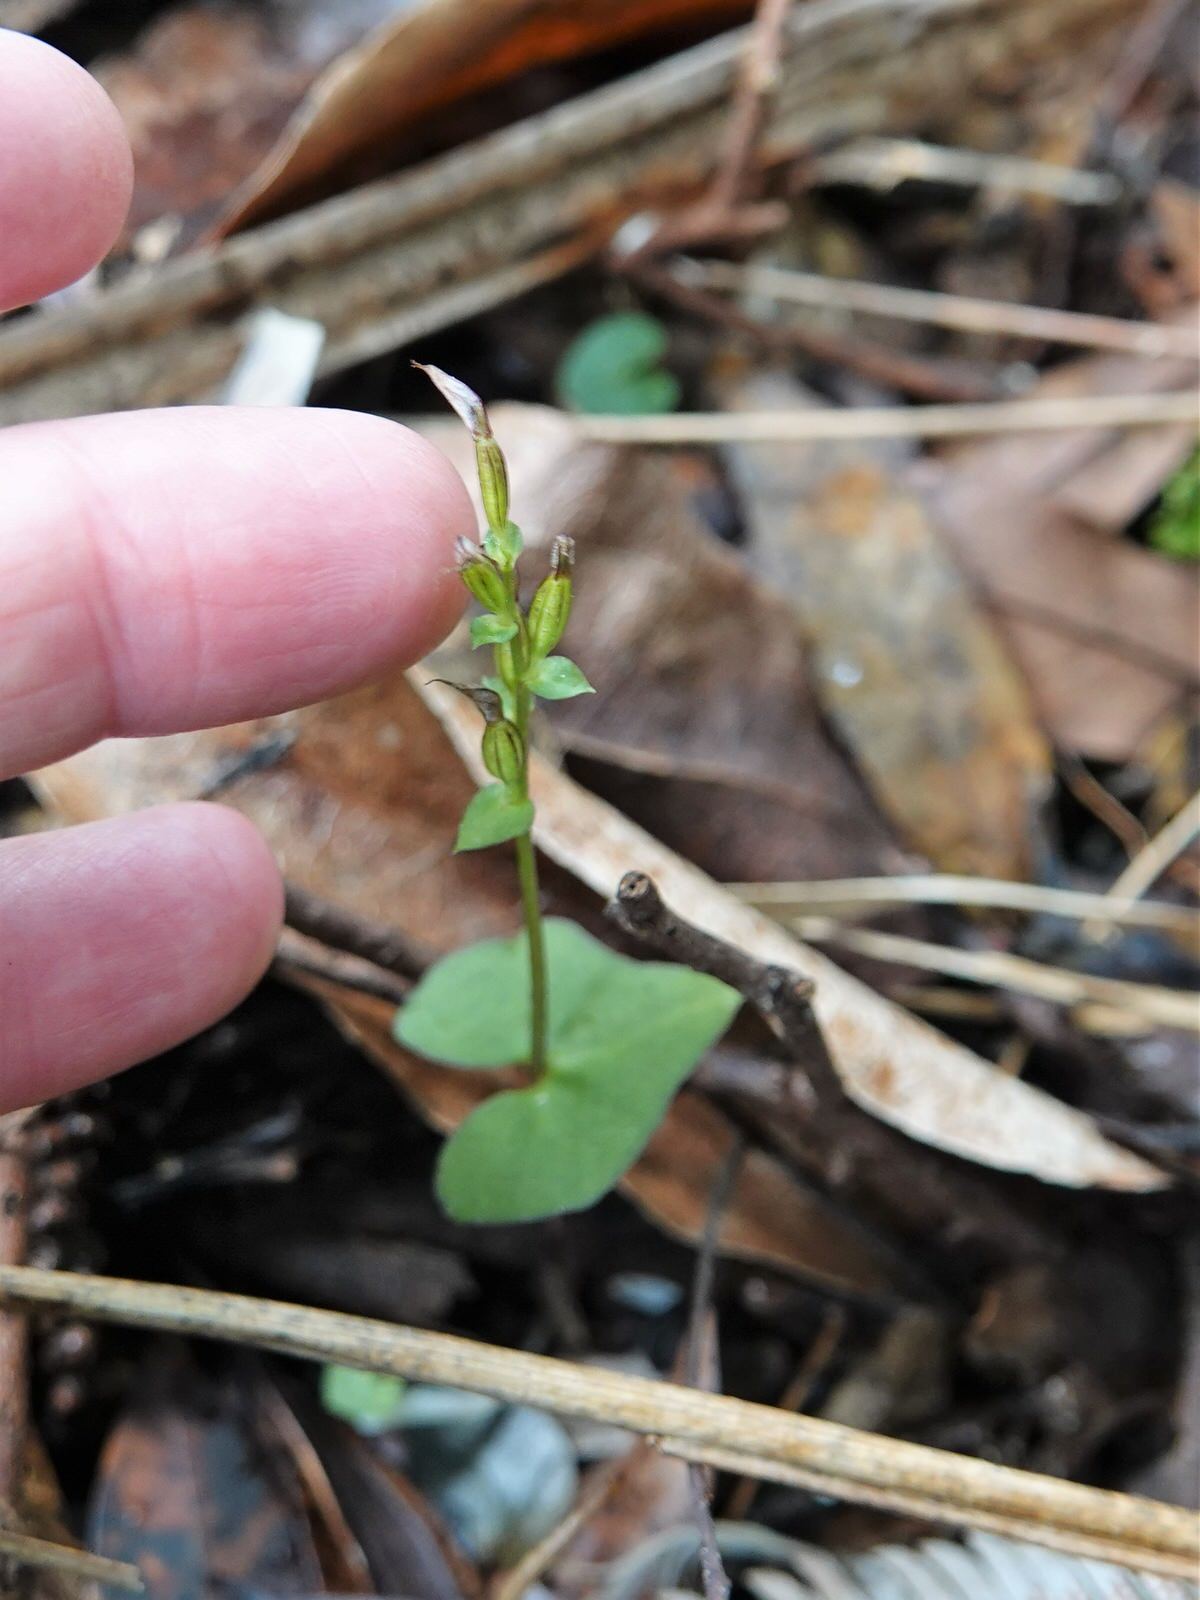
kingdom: Plantae
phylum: Tracheophyta
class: Liliopsida
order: Asparagales
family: Orchidaceae
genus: Acianthus
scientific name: Acianthus sinclairii
